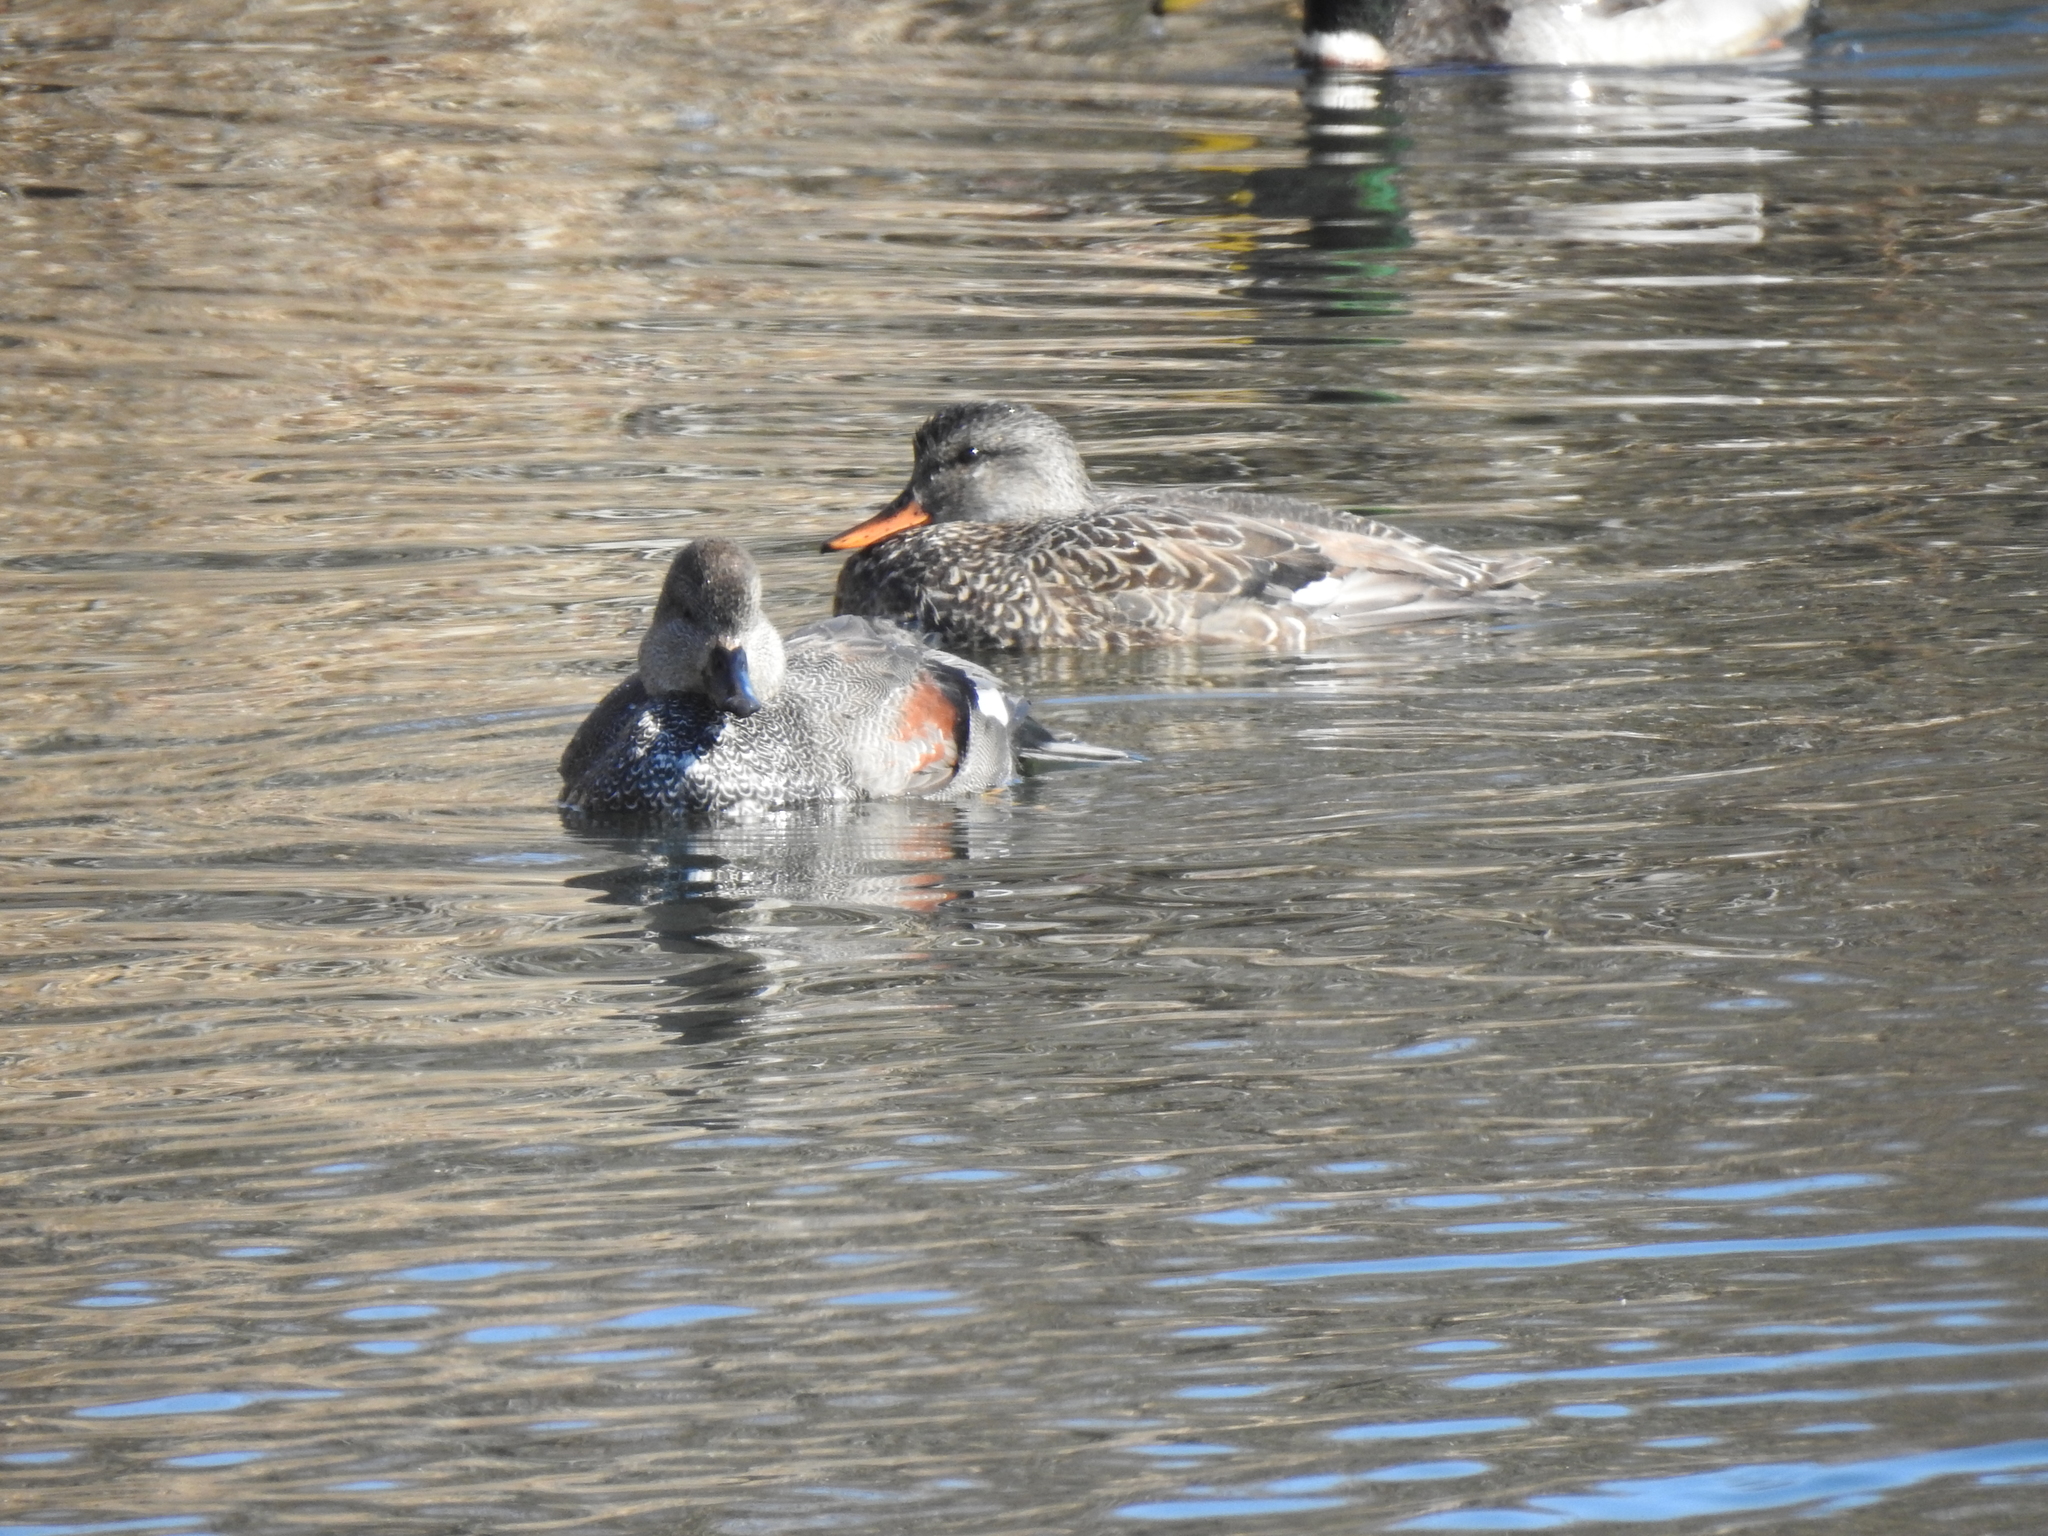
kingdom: Animalia
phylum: Chordata
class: Aves
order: Anseriformes
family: Anatidae
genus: Mareca
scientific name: Mareca strepera
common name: Gadwall
